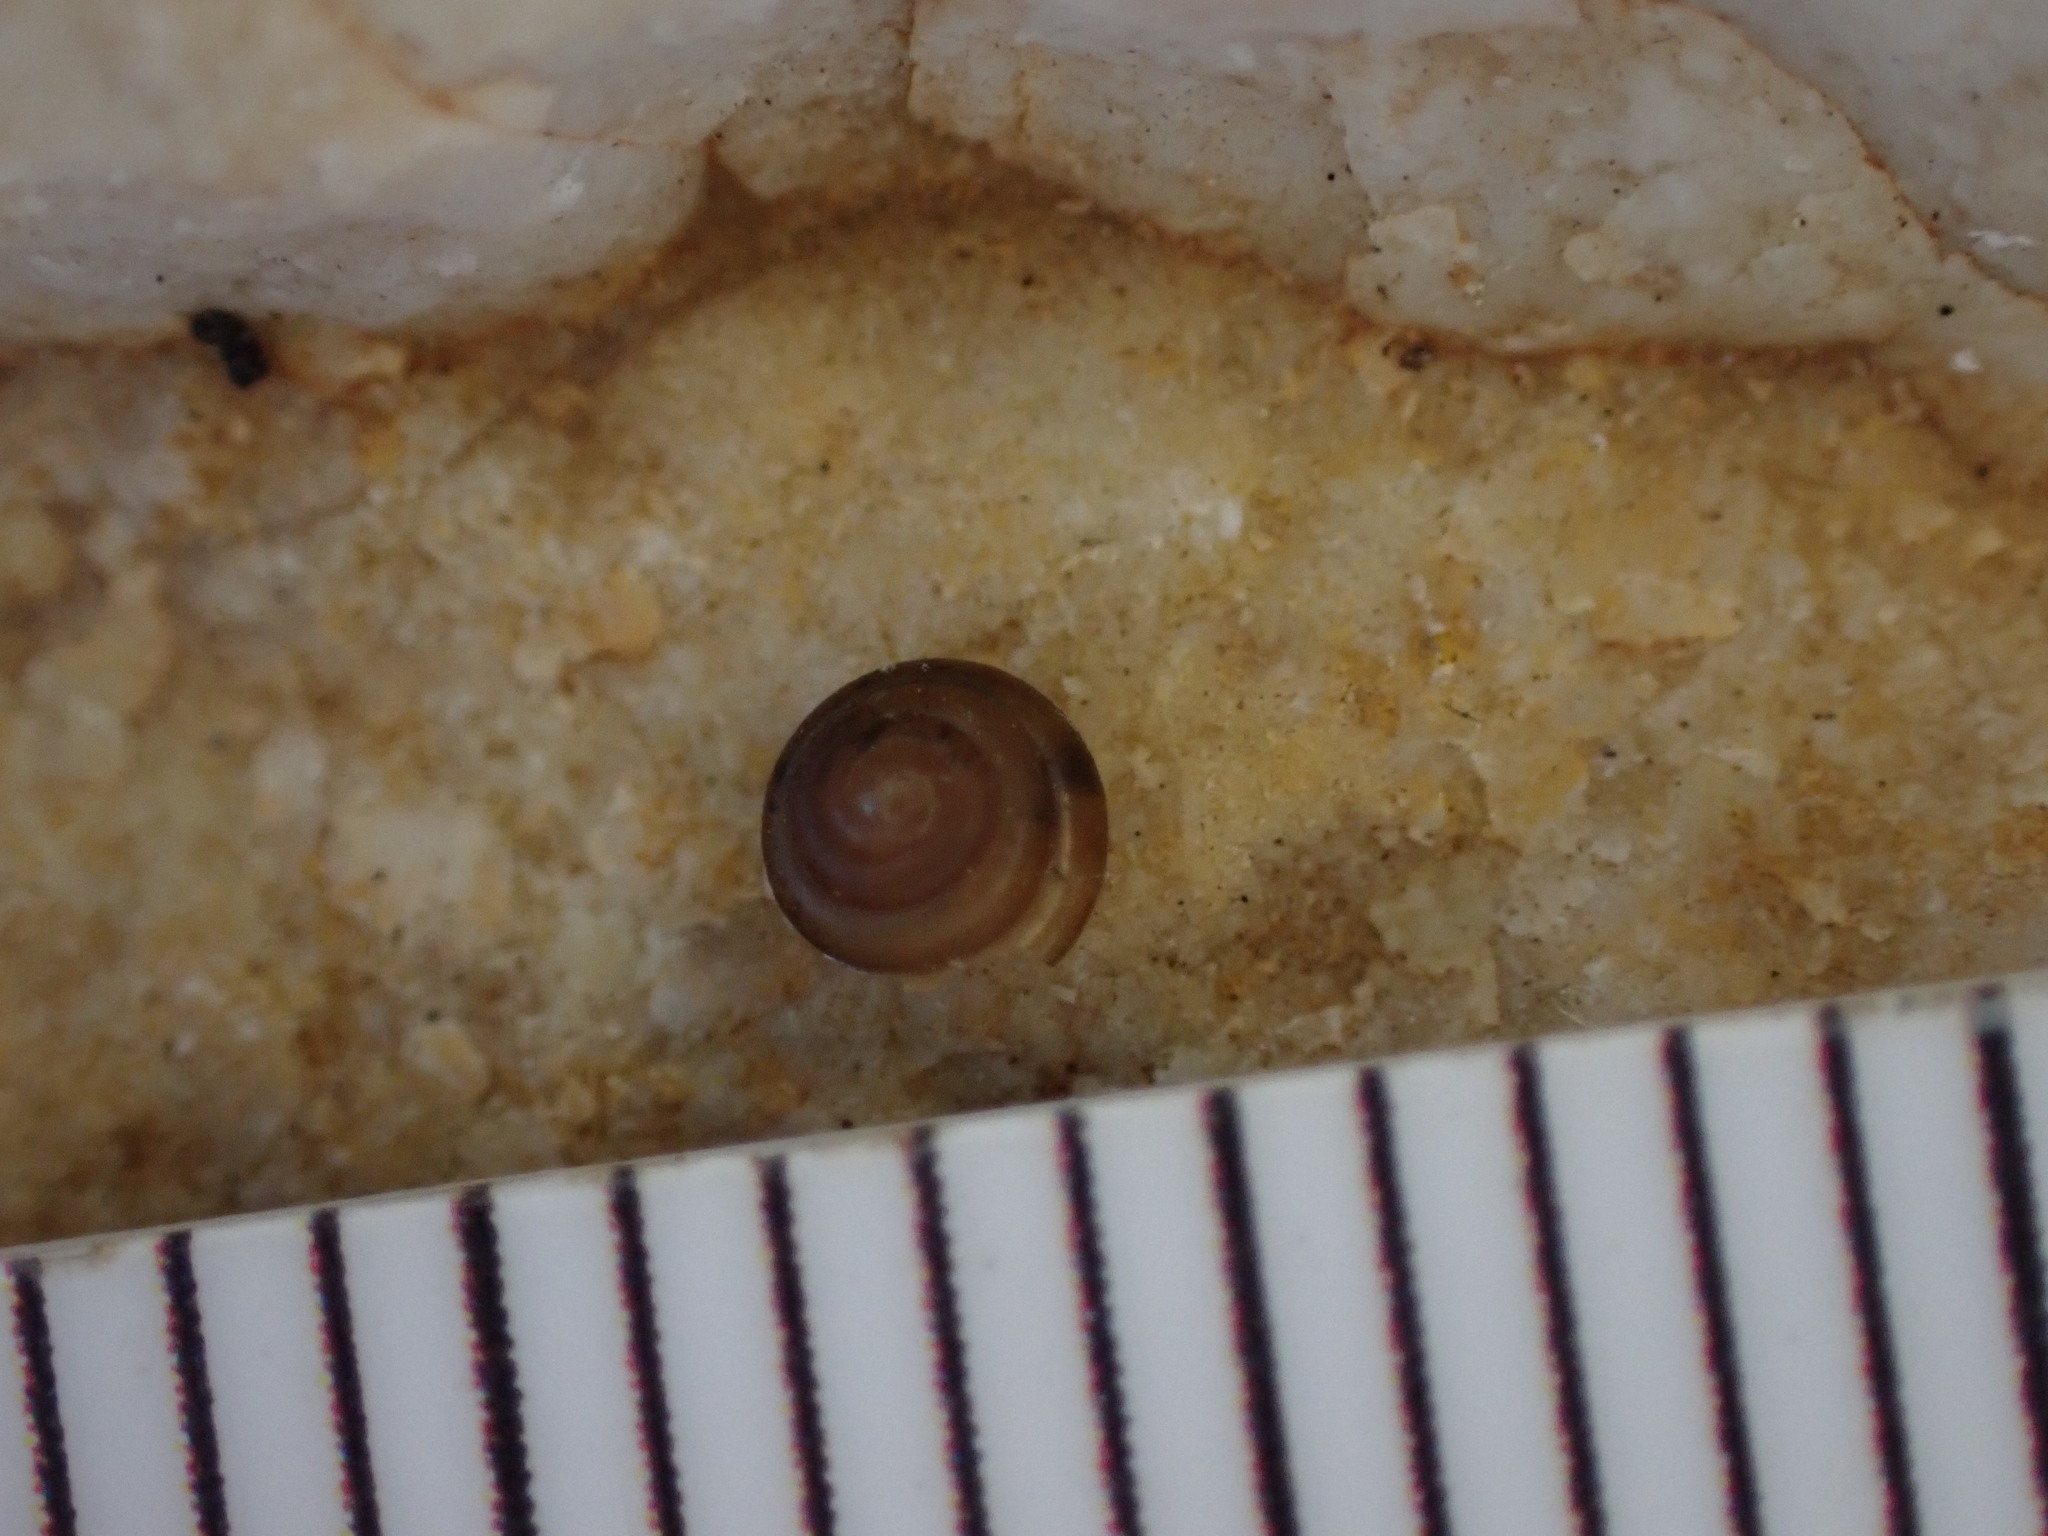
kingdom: Animalia
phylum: Mollusca
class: Gastropoda
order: Stylommatophora
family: Euconulidae
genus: Euconulus
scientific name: Euconulus fulvus
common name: Tawny glass snail
